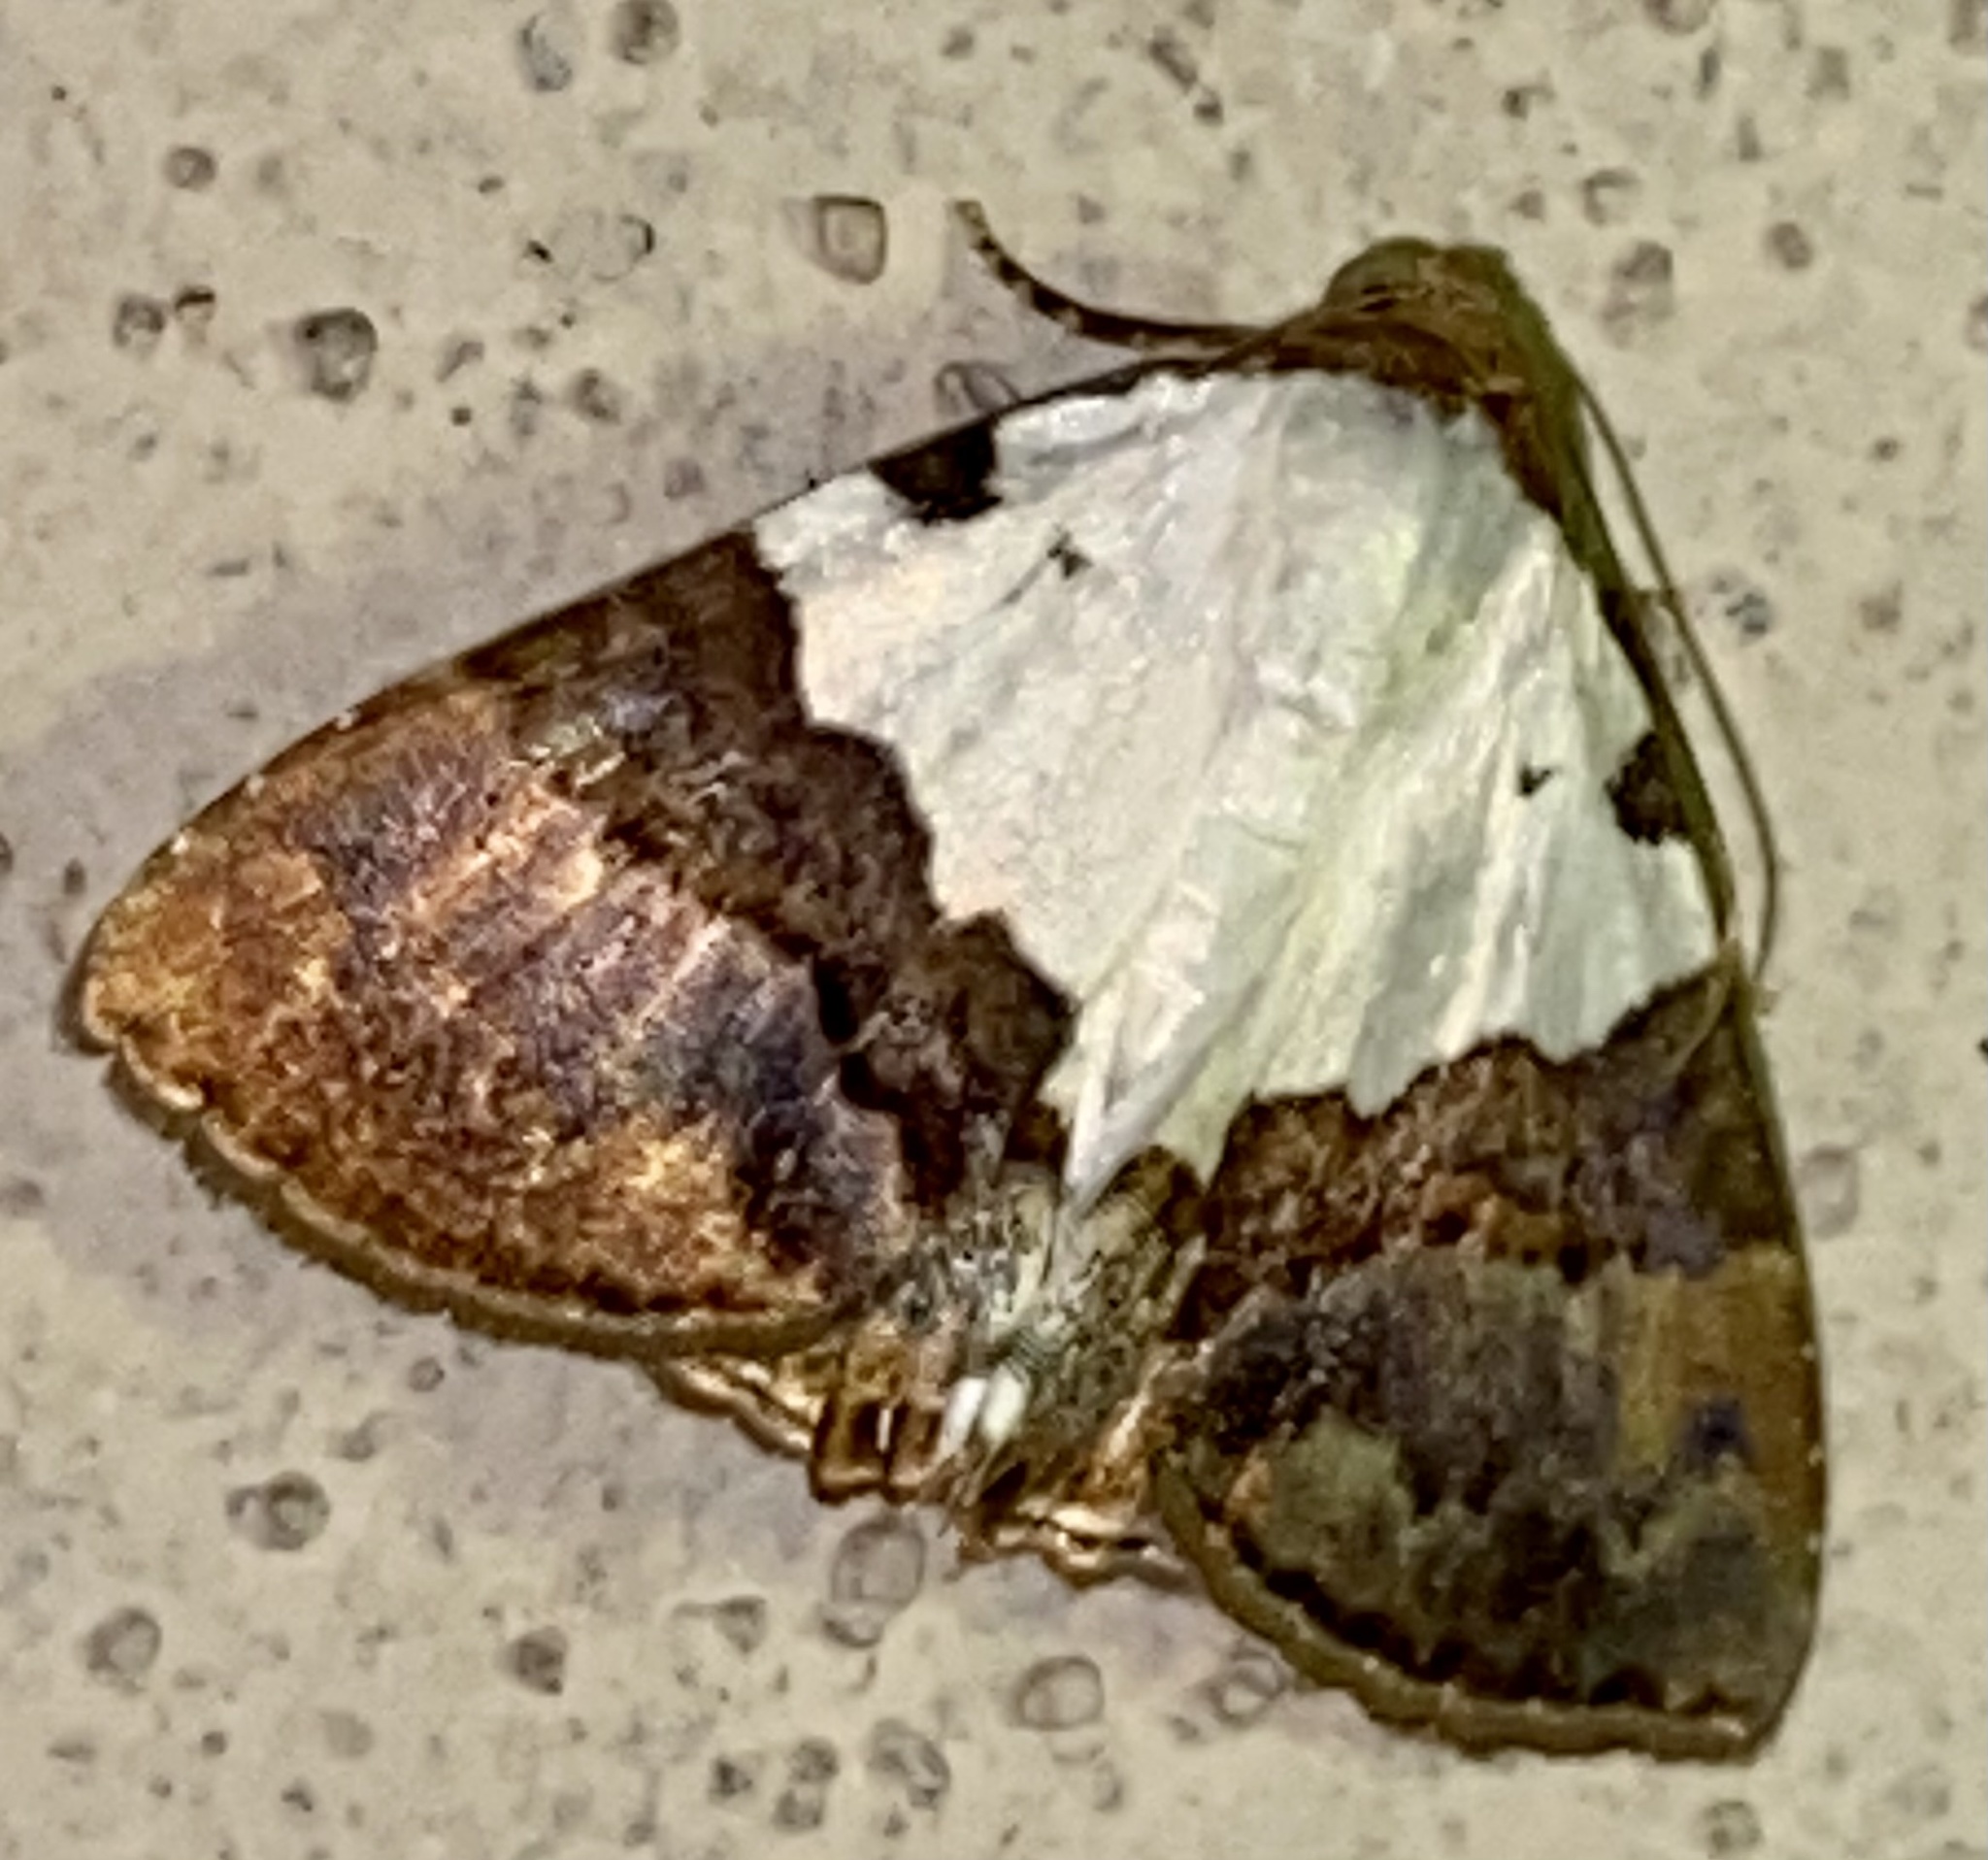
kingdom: Animalia
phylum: Arthropoda
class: Insecta
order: Lepidoptera
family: Erebidae
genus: Eulepidotis
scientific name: Eulepidotis vincentiata
